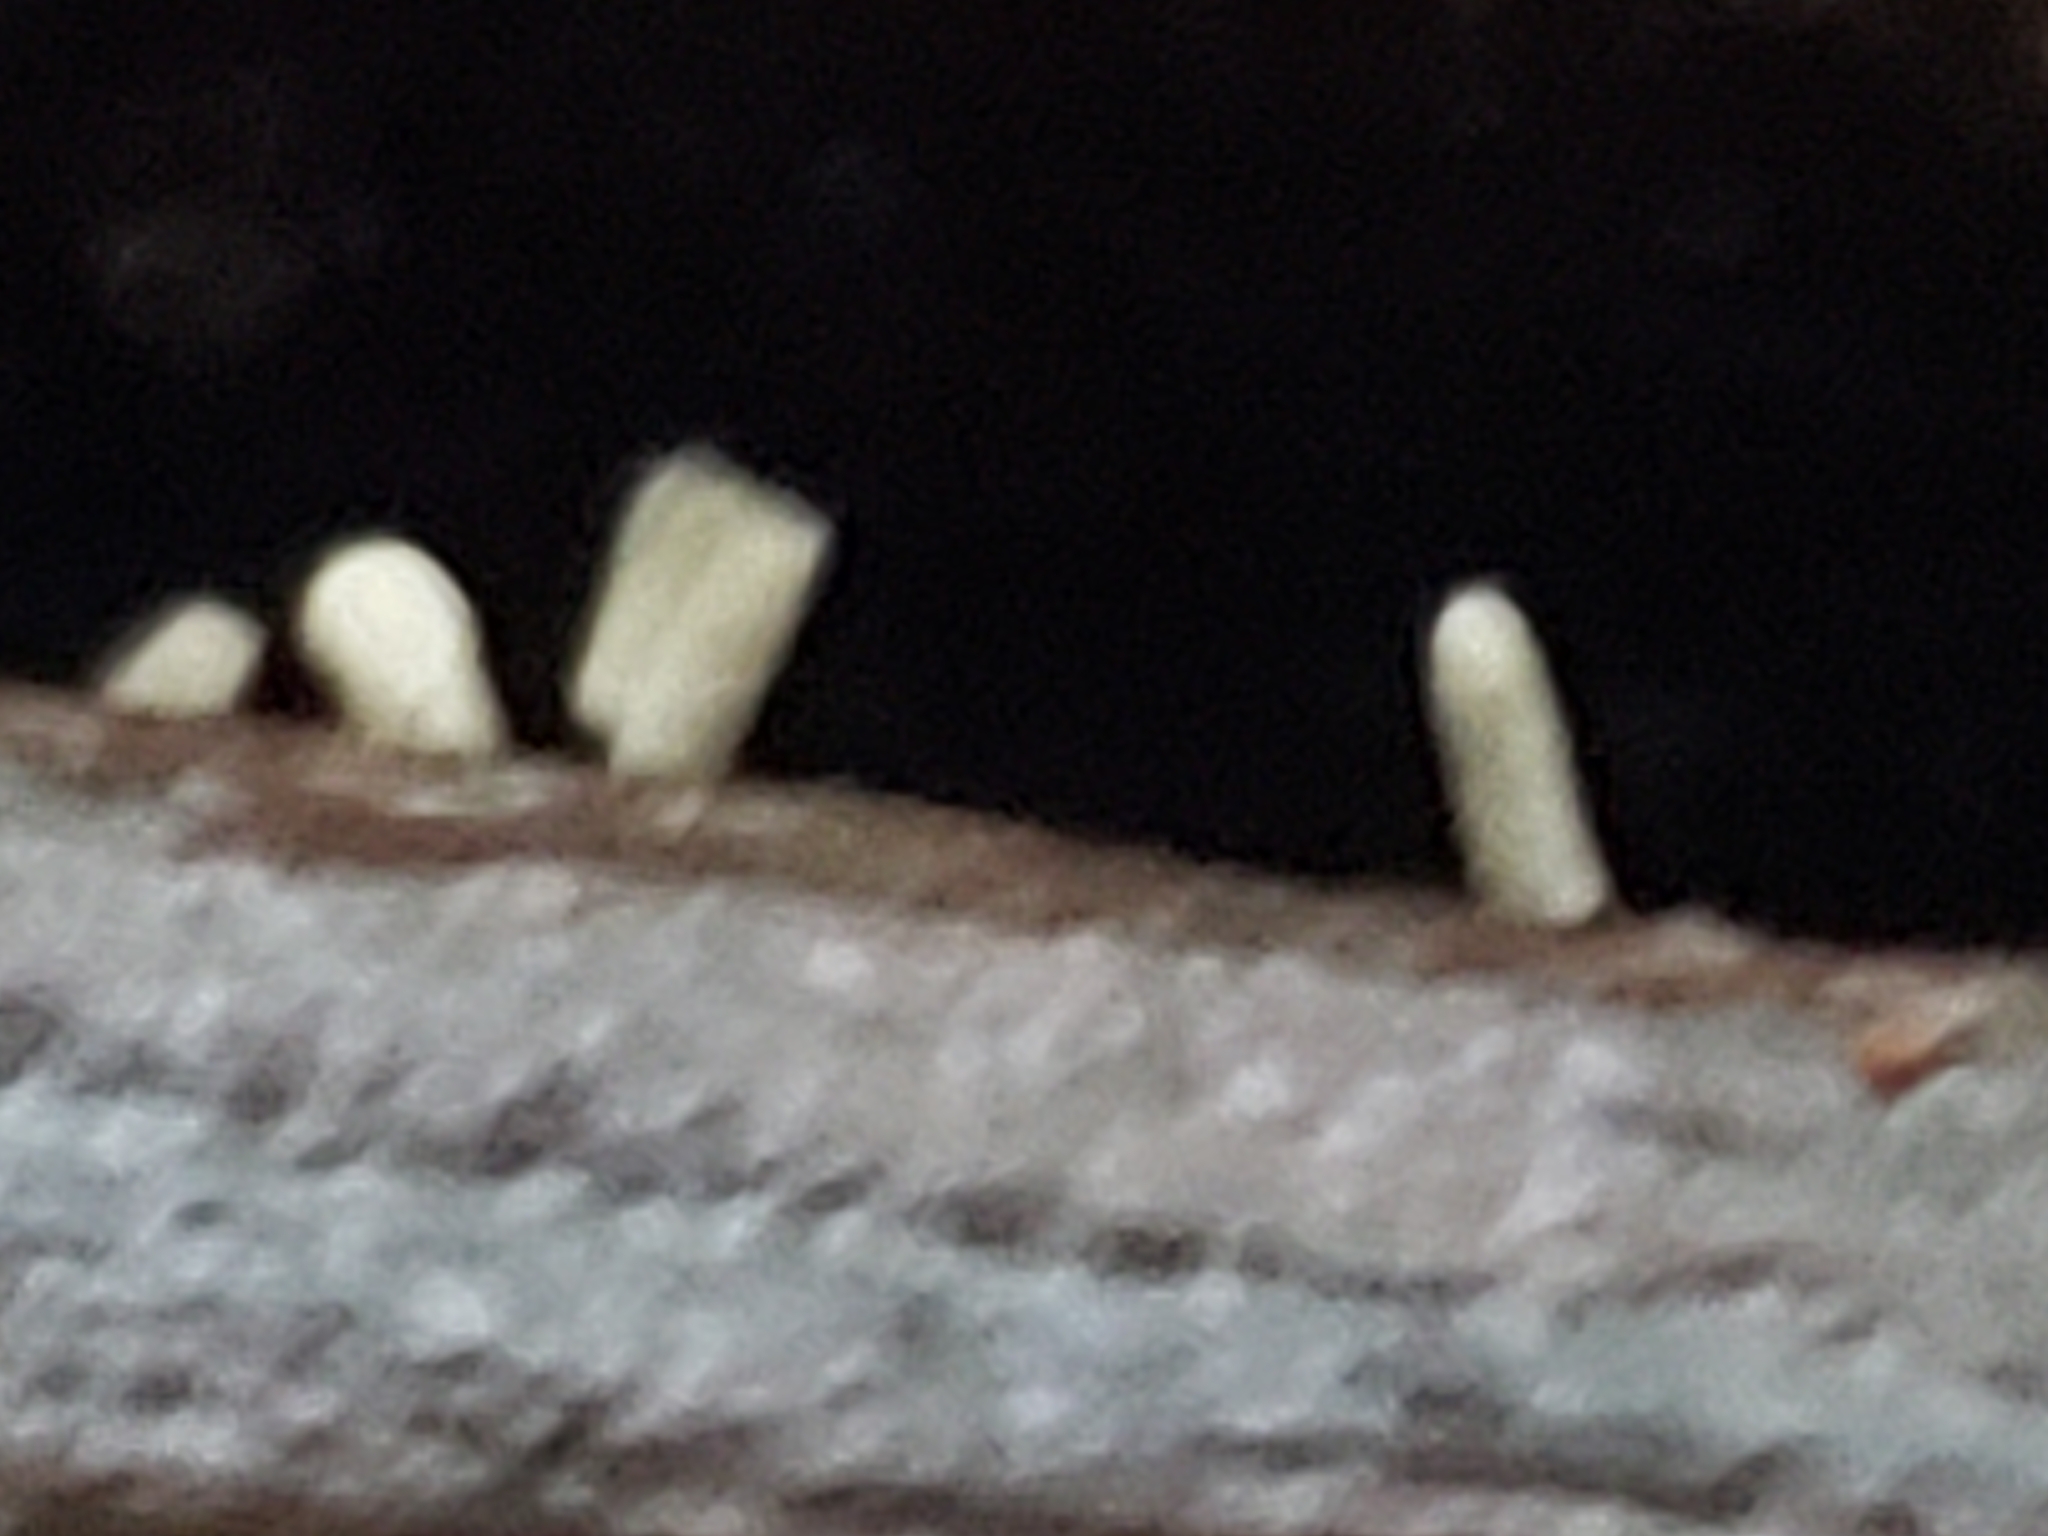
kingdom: Protozoa
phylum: Mycetozoa
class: Myxomycetes
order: Trichiales
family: Arcyriaceae
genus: Arcyria
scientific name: Arcyria cinerea
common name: White carnival candy slime mold
